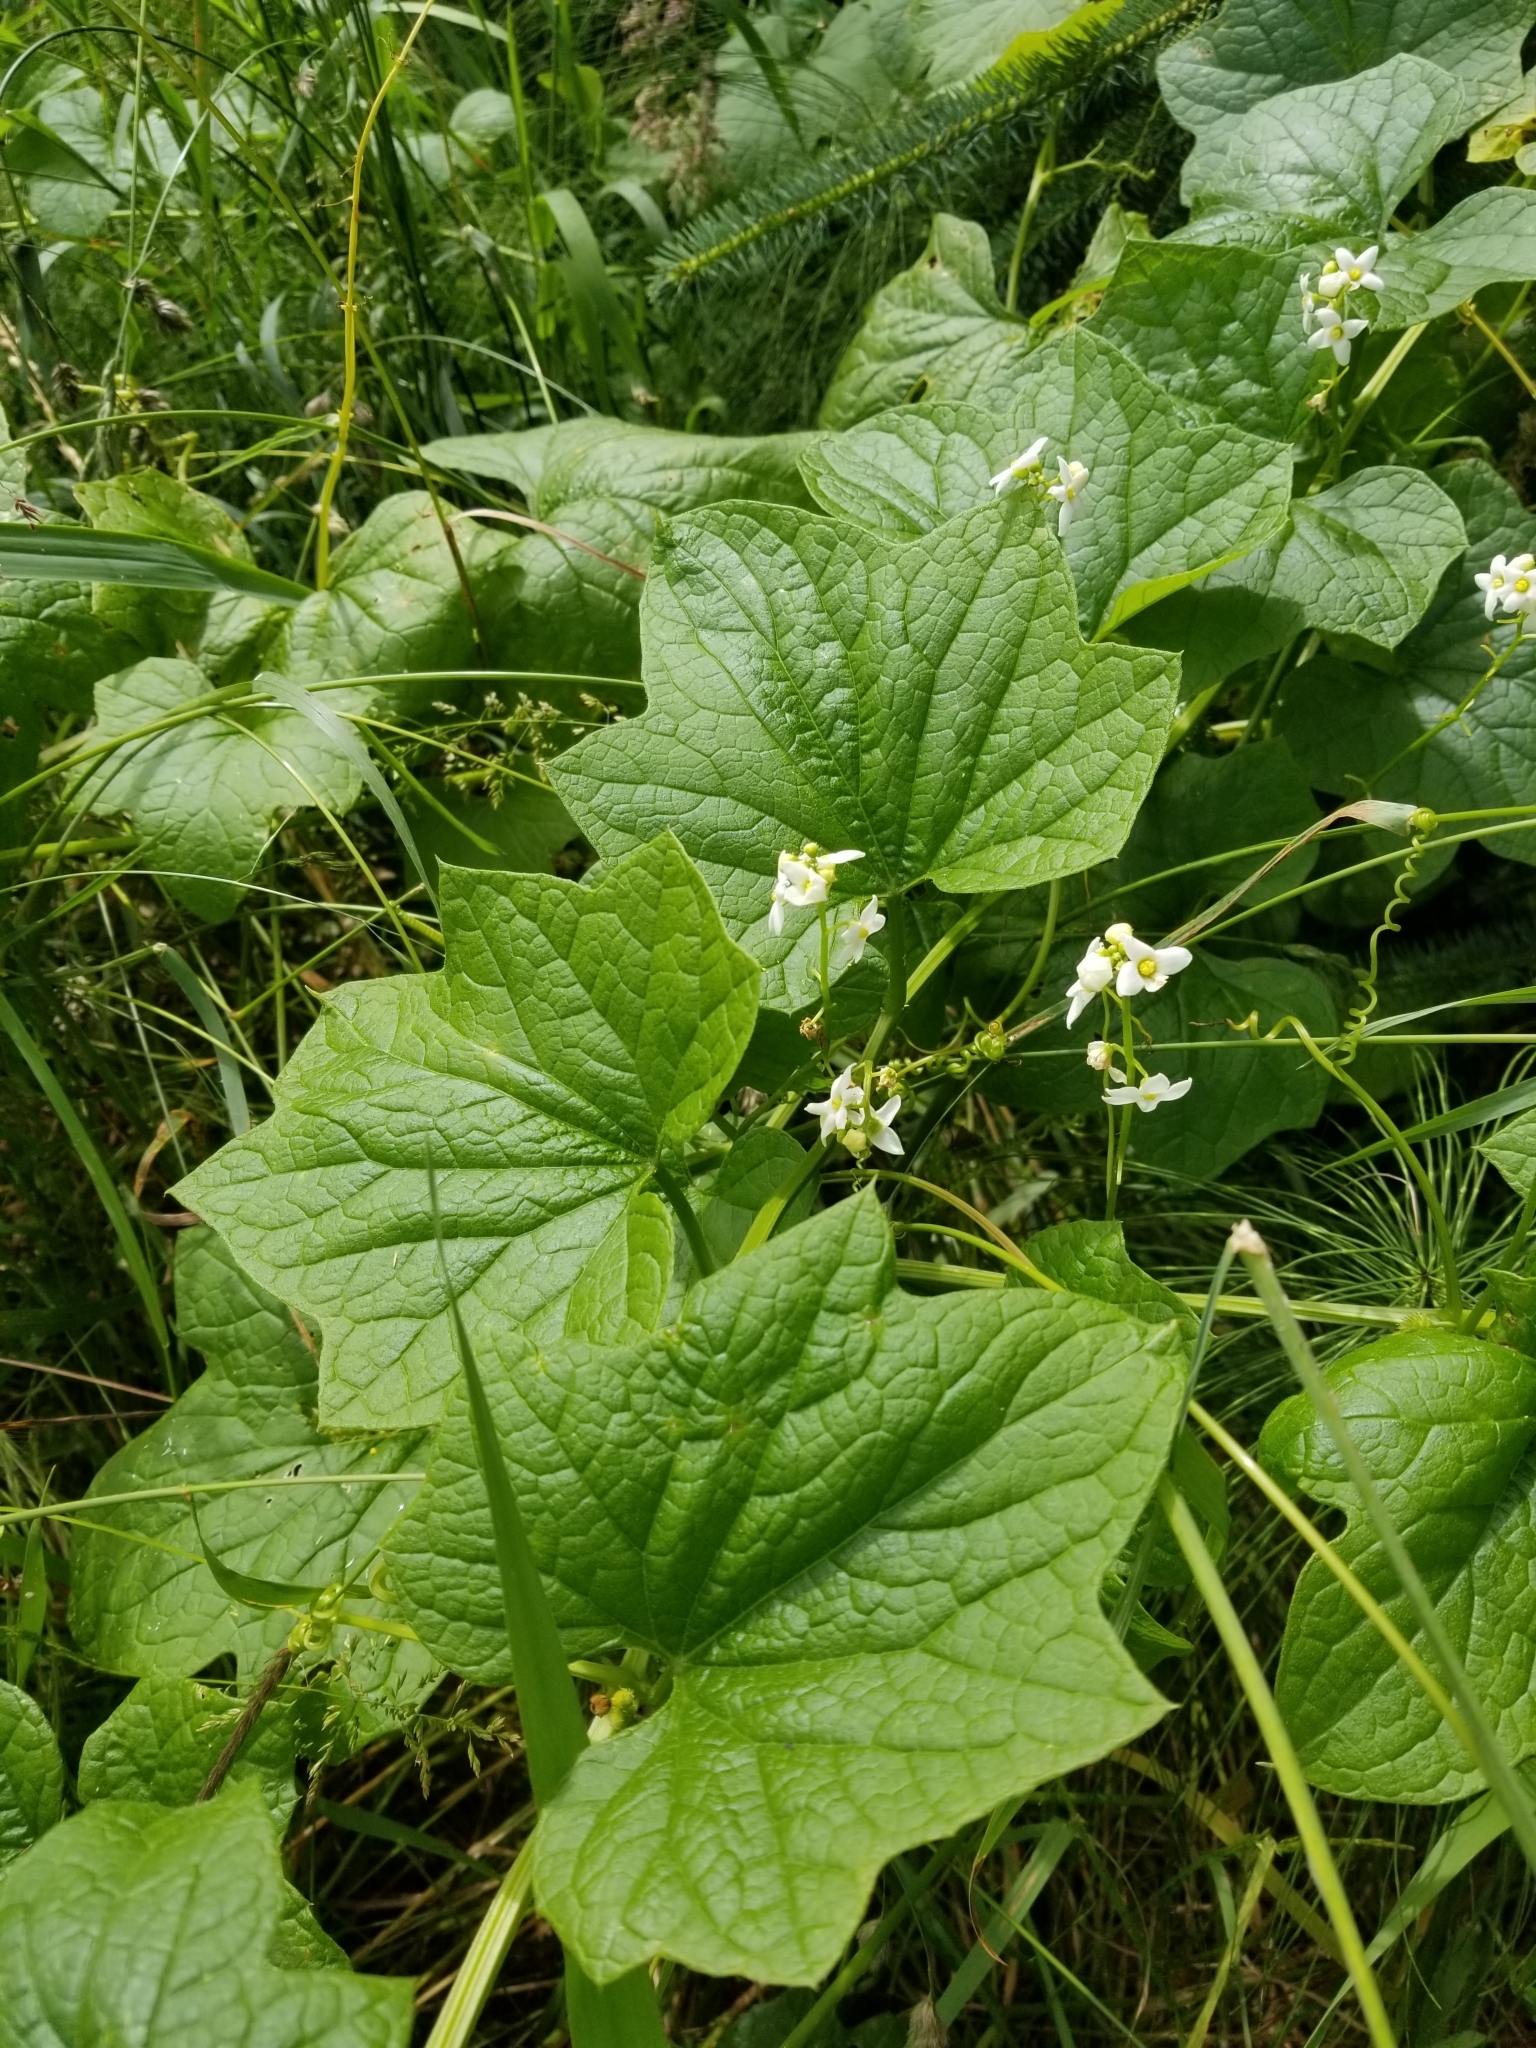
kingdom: Plantae
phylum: Tracheophyta
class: Magnoliopsida
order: Cucurbitales
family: Cucurbitaceae
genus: Marah
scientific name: Marah oregana
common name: Coastal manroot
